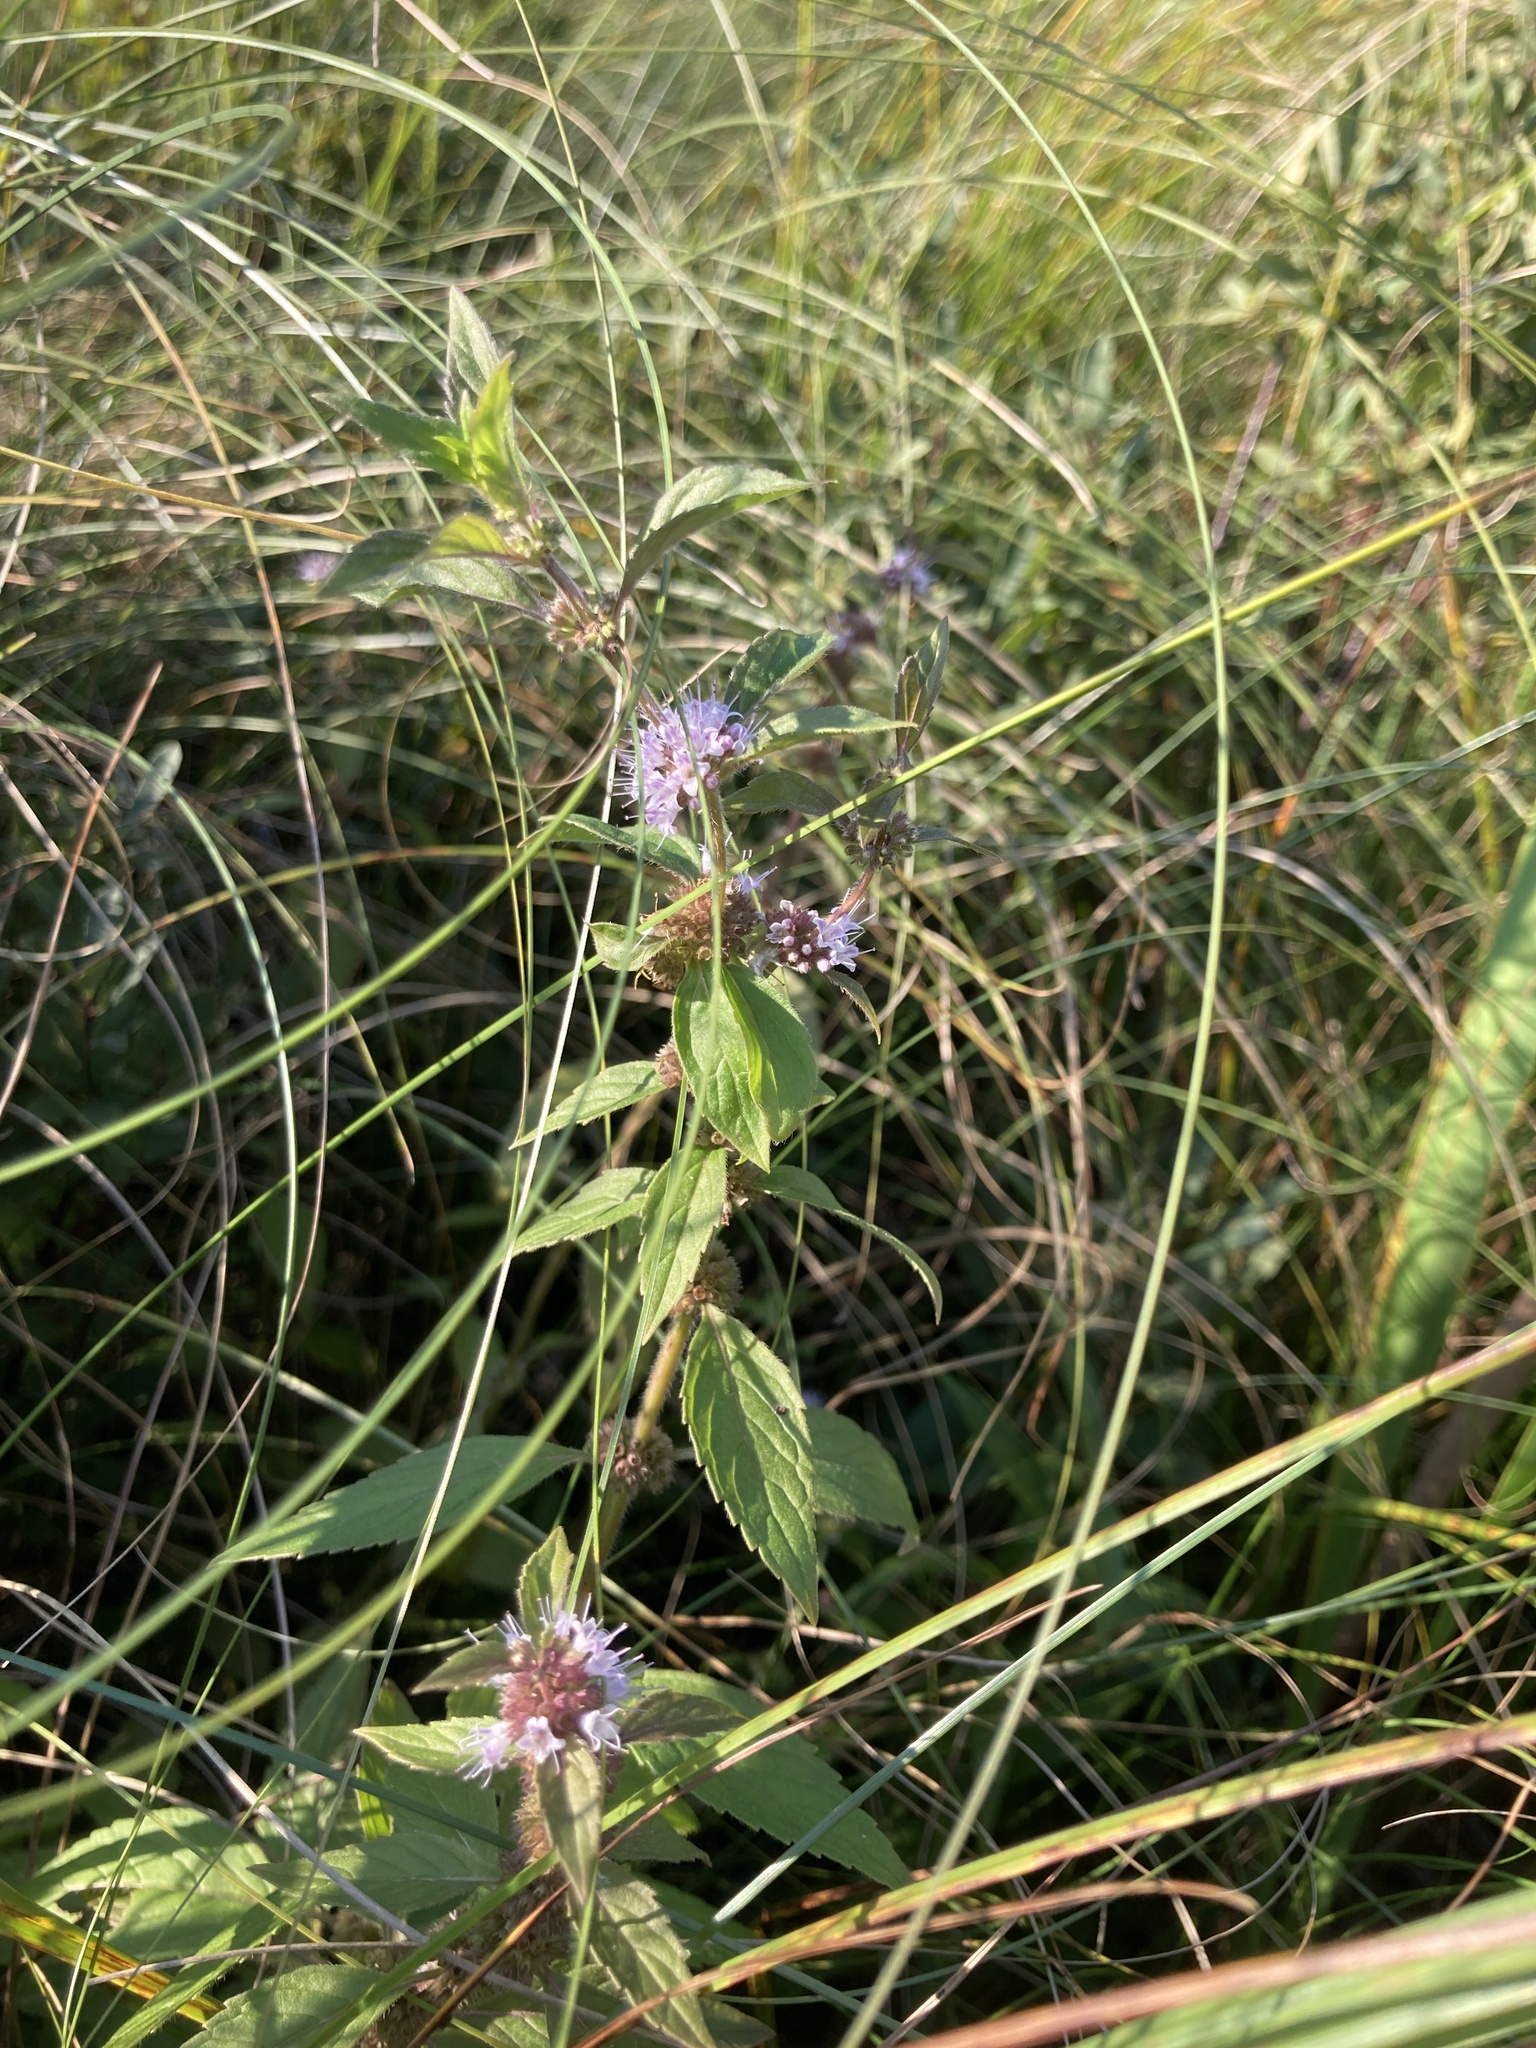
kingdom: Plantae
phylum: Tracheophyta
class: Magnoliopsida
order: Lamiales
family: Lamiaceae
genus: Mentha
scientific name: Mentha canadensis
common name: American corn mint
